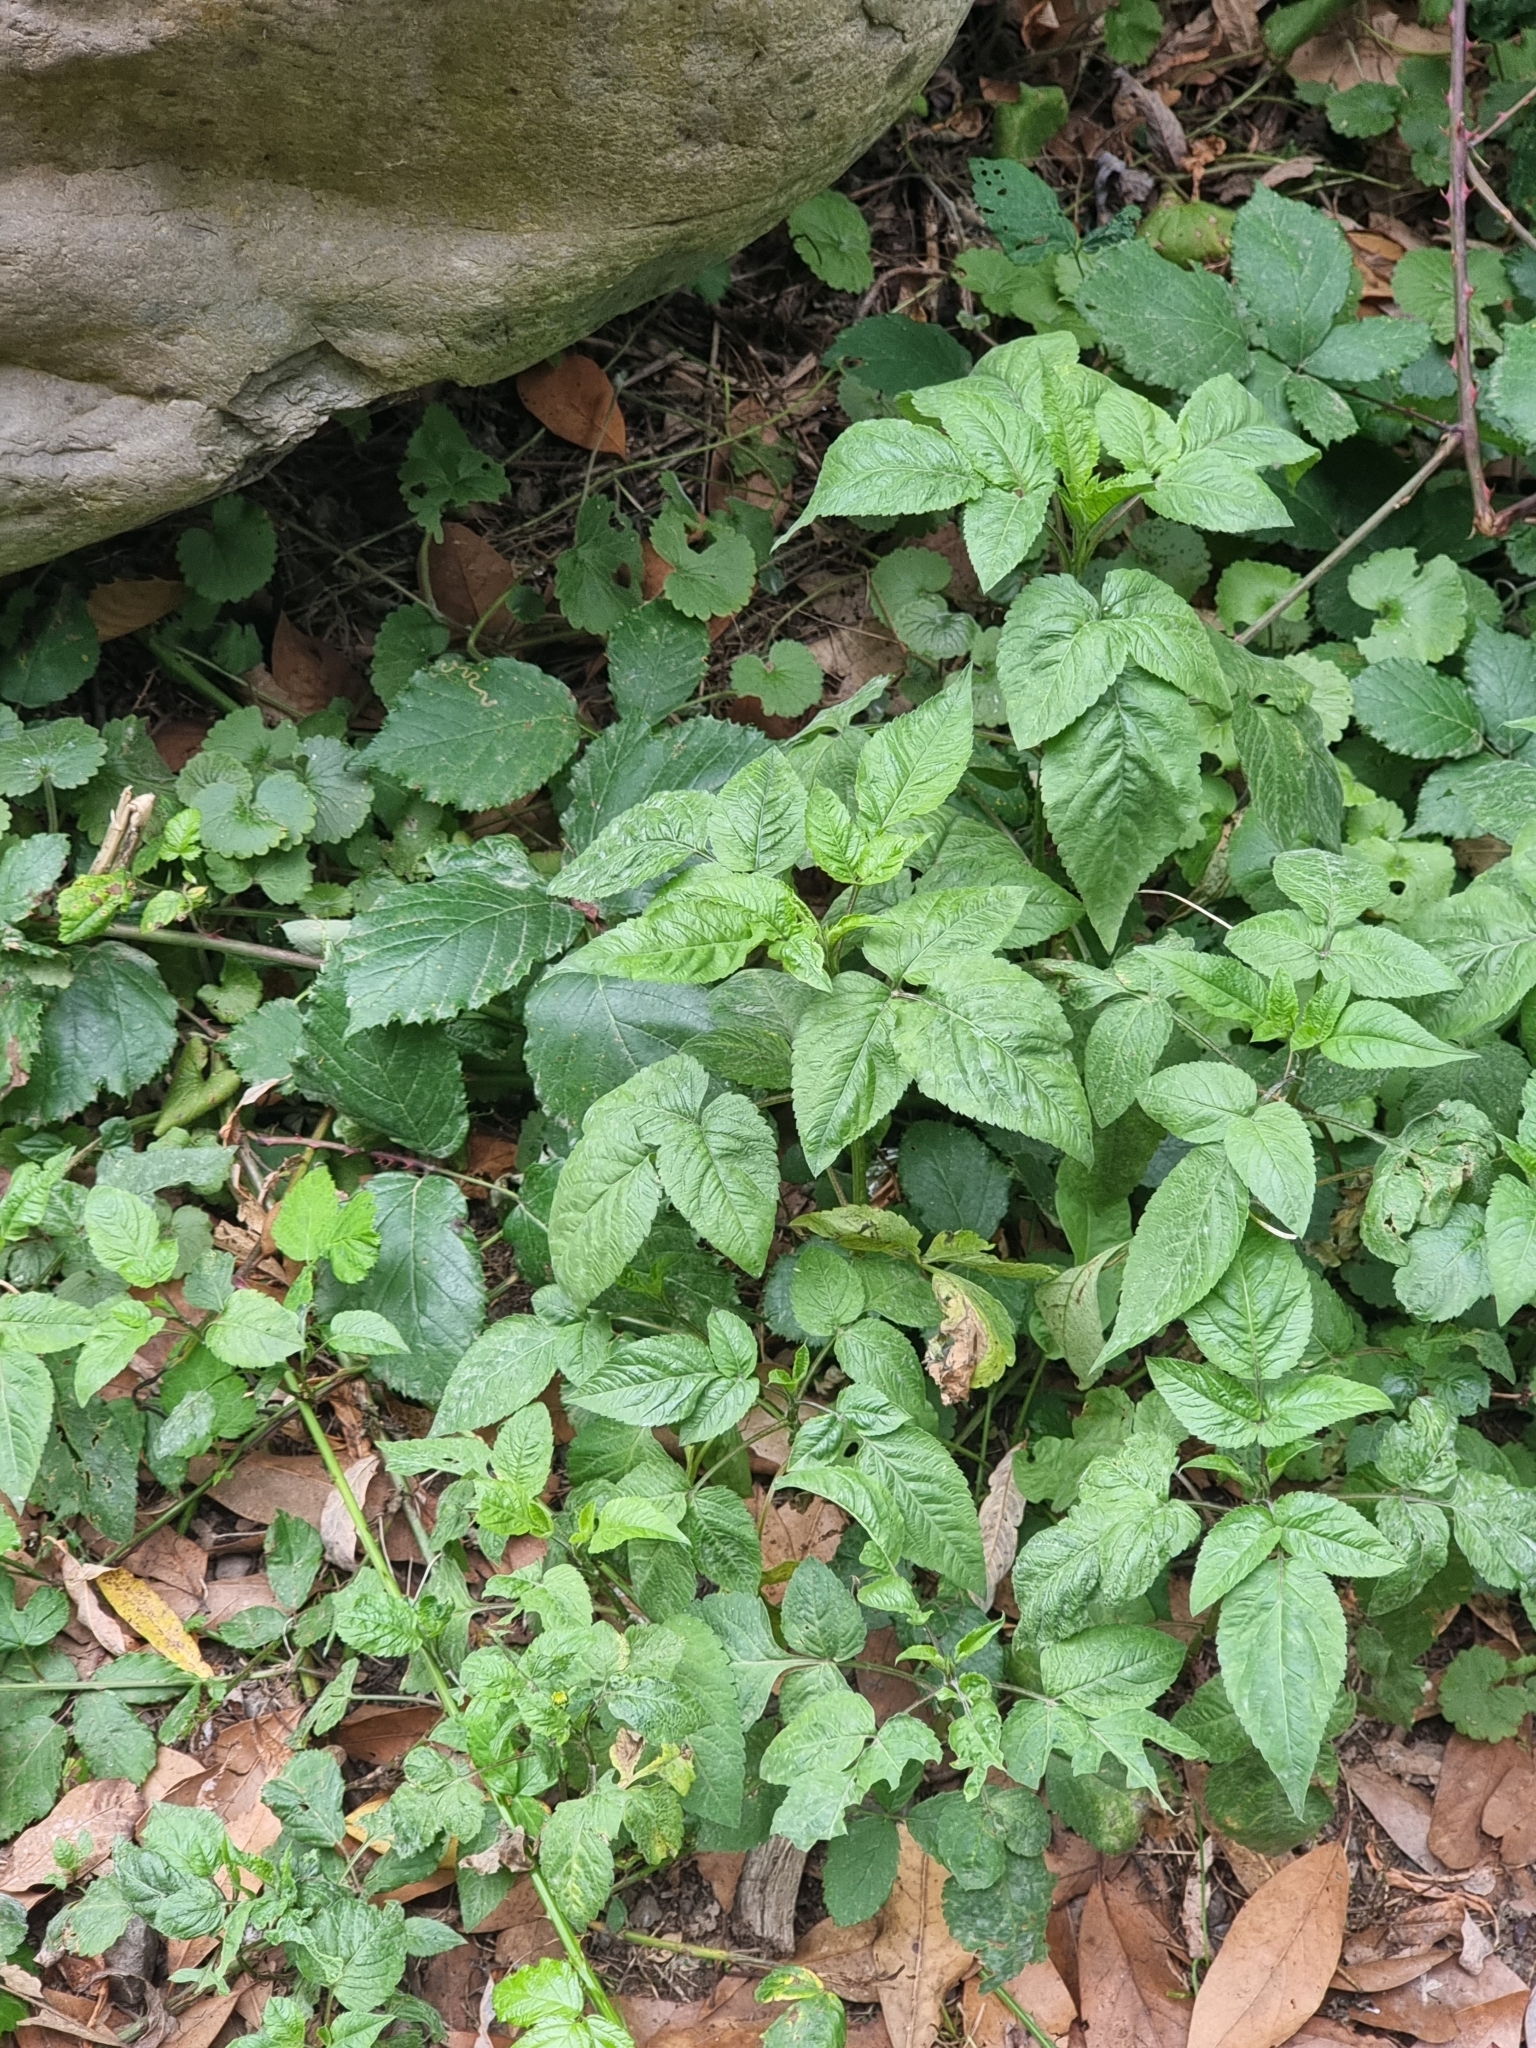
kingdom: Plantae
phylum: Tracheophyta
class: Magnoliopsida
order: Asterales
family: Asteraceae
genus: Bidens
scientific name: Bidens pilosa
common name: Black-jack
